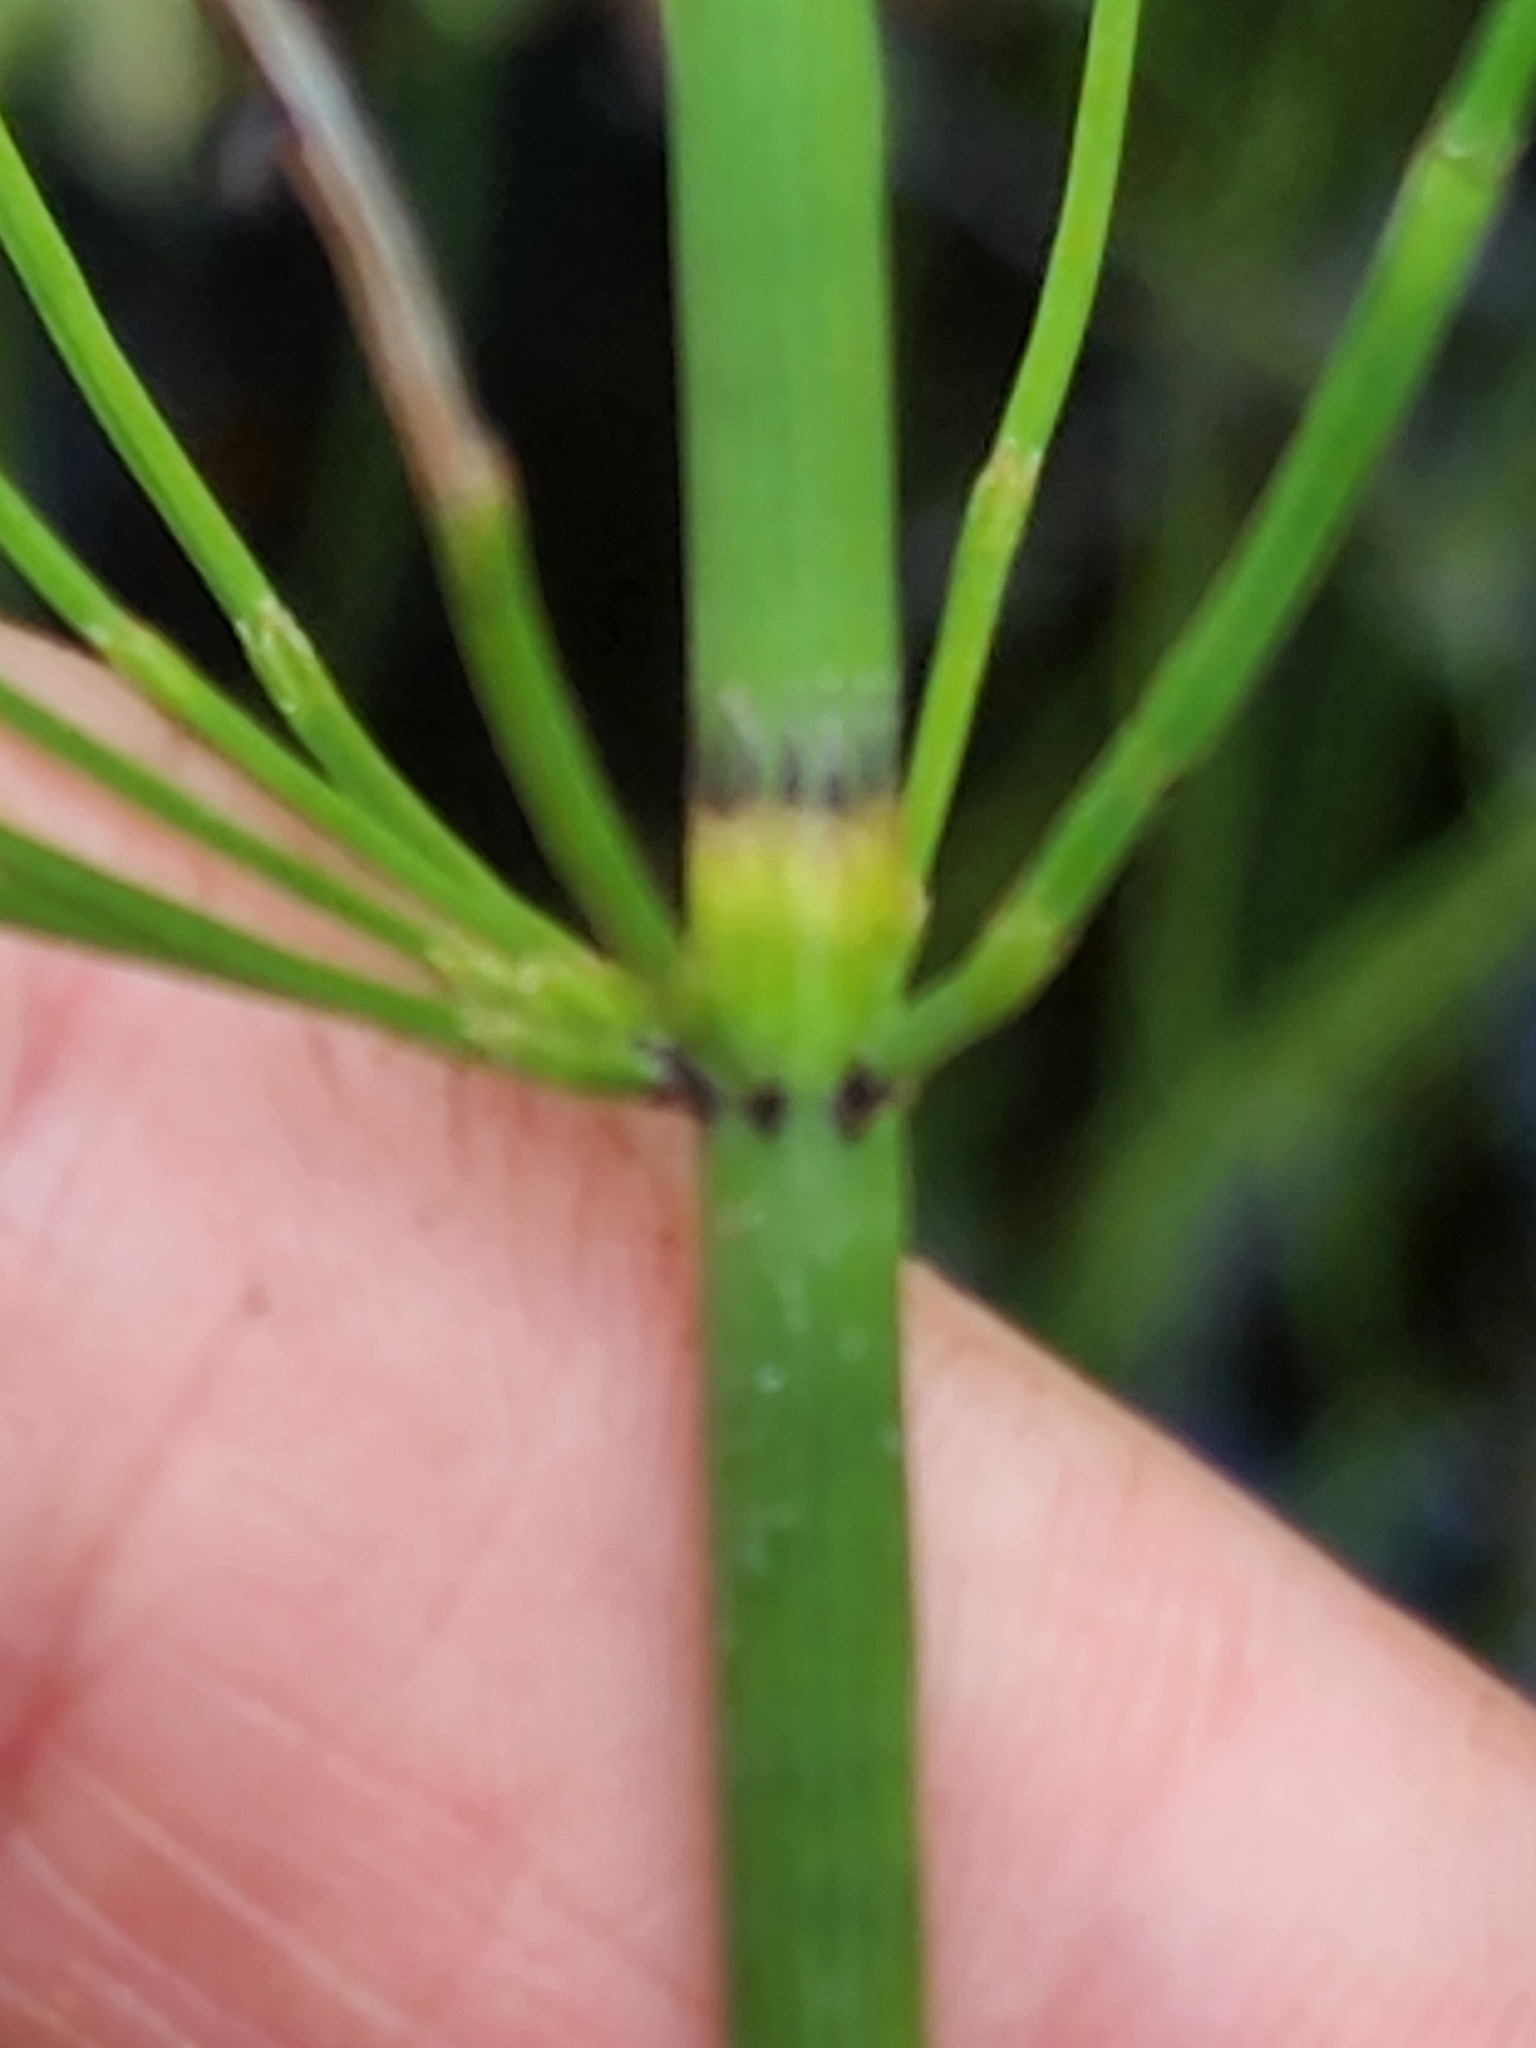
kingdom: Plantae
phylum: Tracheophyta
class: Polypodiopsida
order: Equisetales
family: Equisetaceae
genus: Equisetum
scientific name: Equisetum fluviatile
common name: Water horsetail
